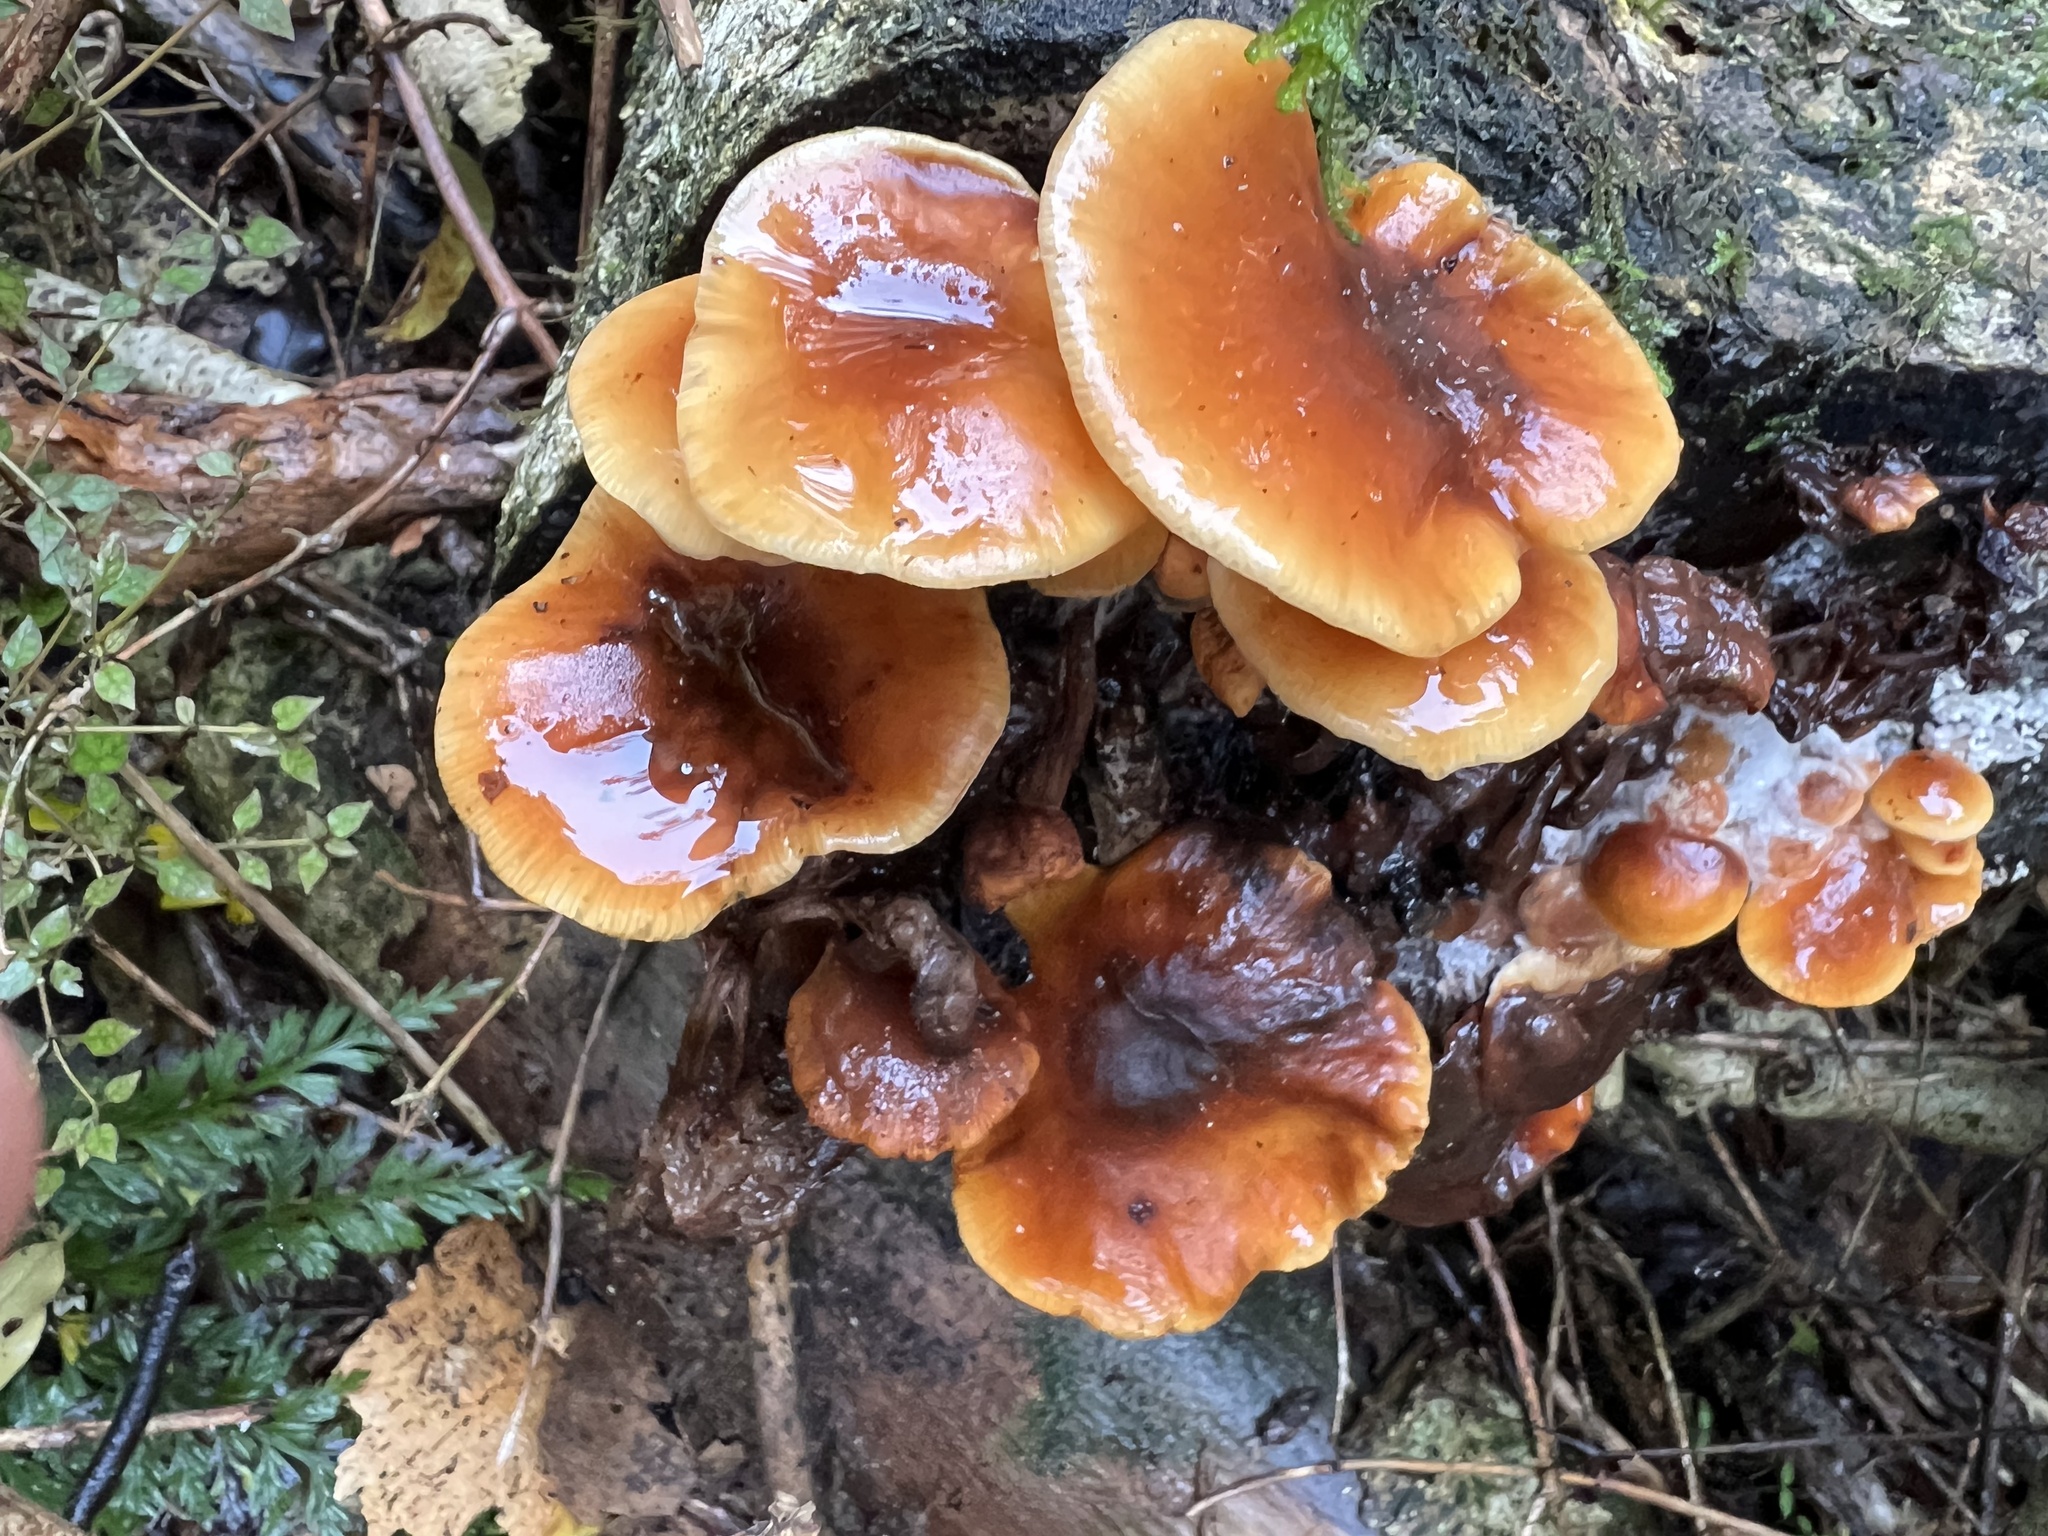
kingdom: Fungi
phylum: Basidiomycota
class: Agaricomycetes
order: Agaricales
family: Physalacriaceae
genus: Flammulina
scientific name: Flammulina velutipes
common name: Velvet shank
